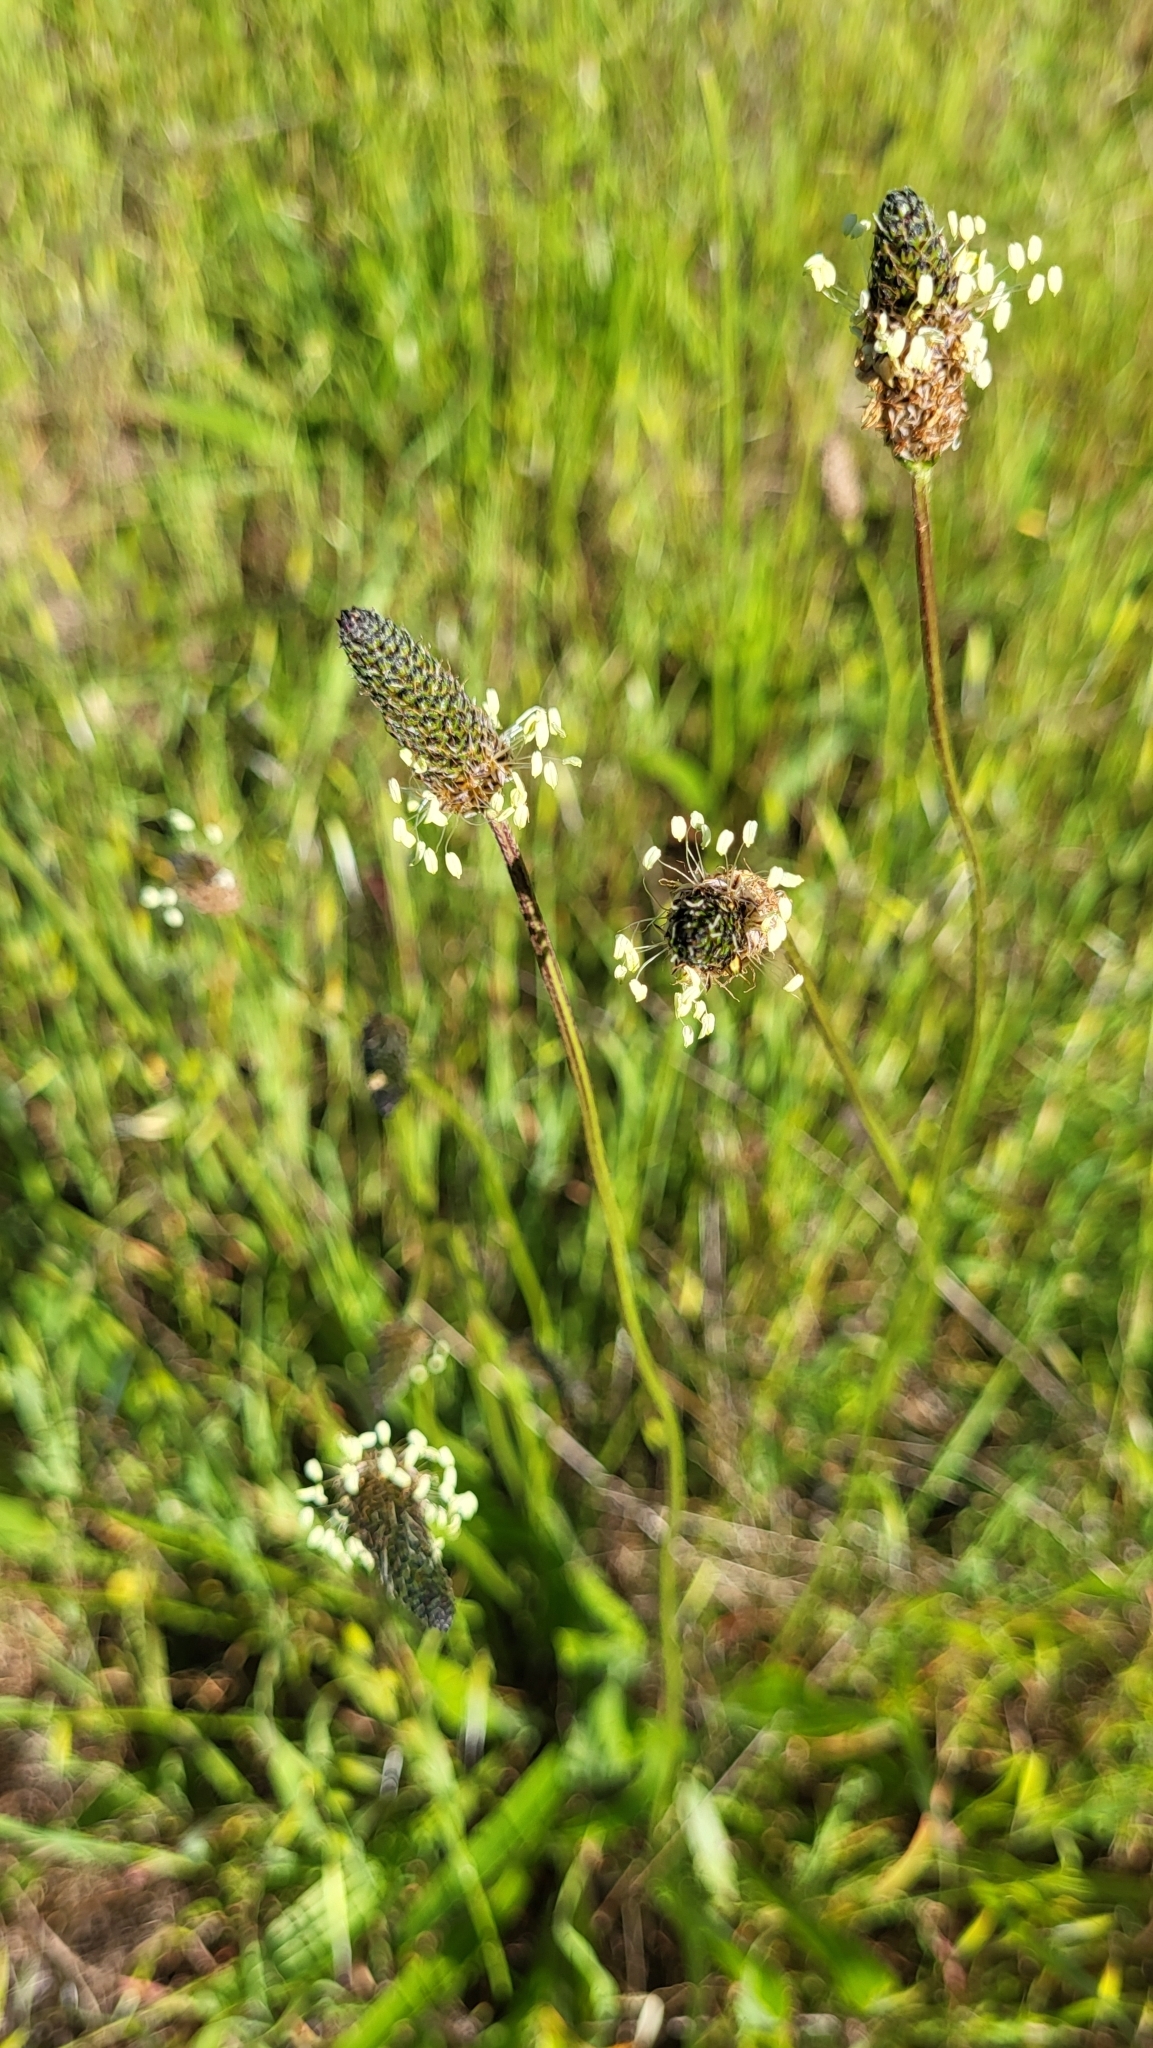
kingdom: Plantae
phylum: Tracheophyta
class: Magnoliopsida
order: Lamiales
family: Plantaginaceae
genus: Plantago
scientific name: Plantago lanceolata
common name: Ribwort plantain
